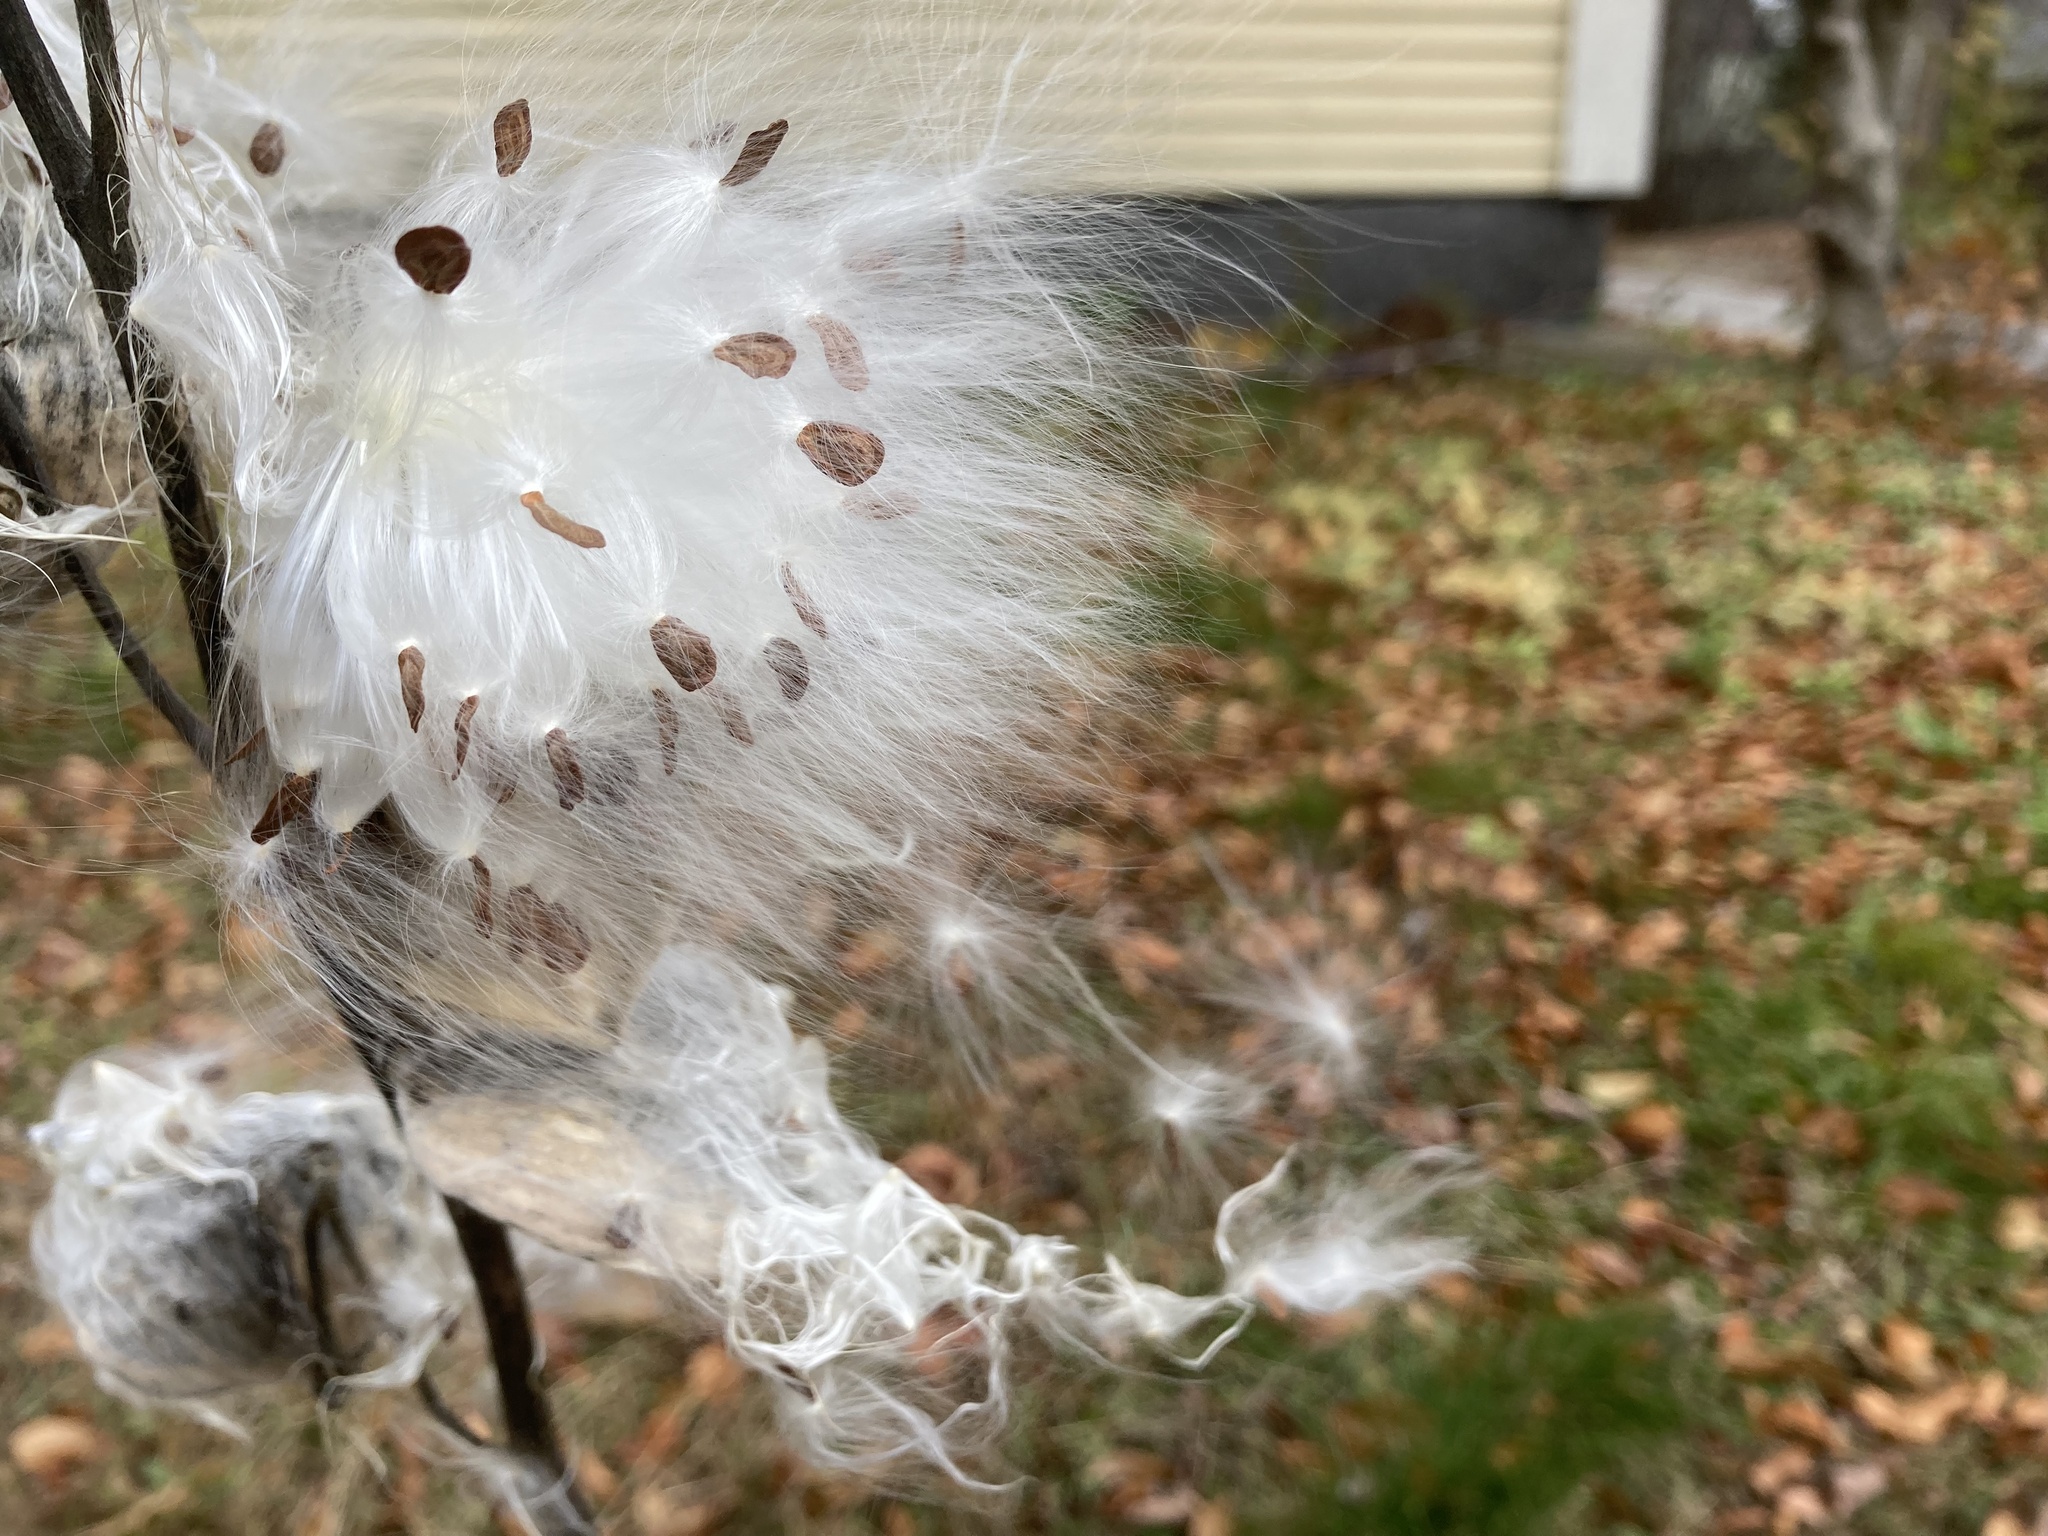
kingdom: Plantae
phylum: Tracheophyta
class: Magnoliopsida
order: Gentianales
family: Apocynaceae
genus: Asclepias
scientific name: Asclepias syriaca
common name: Common milkweed
